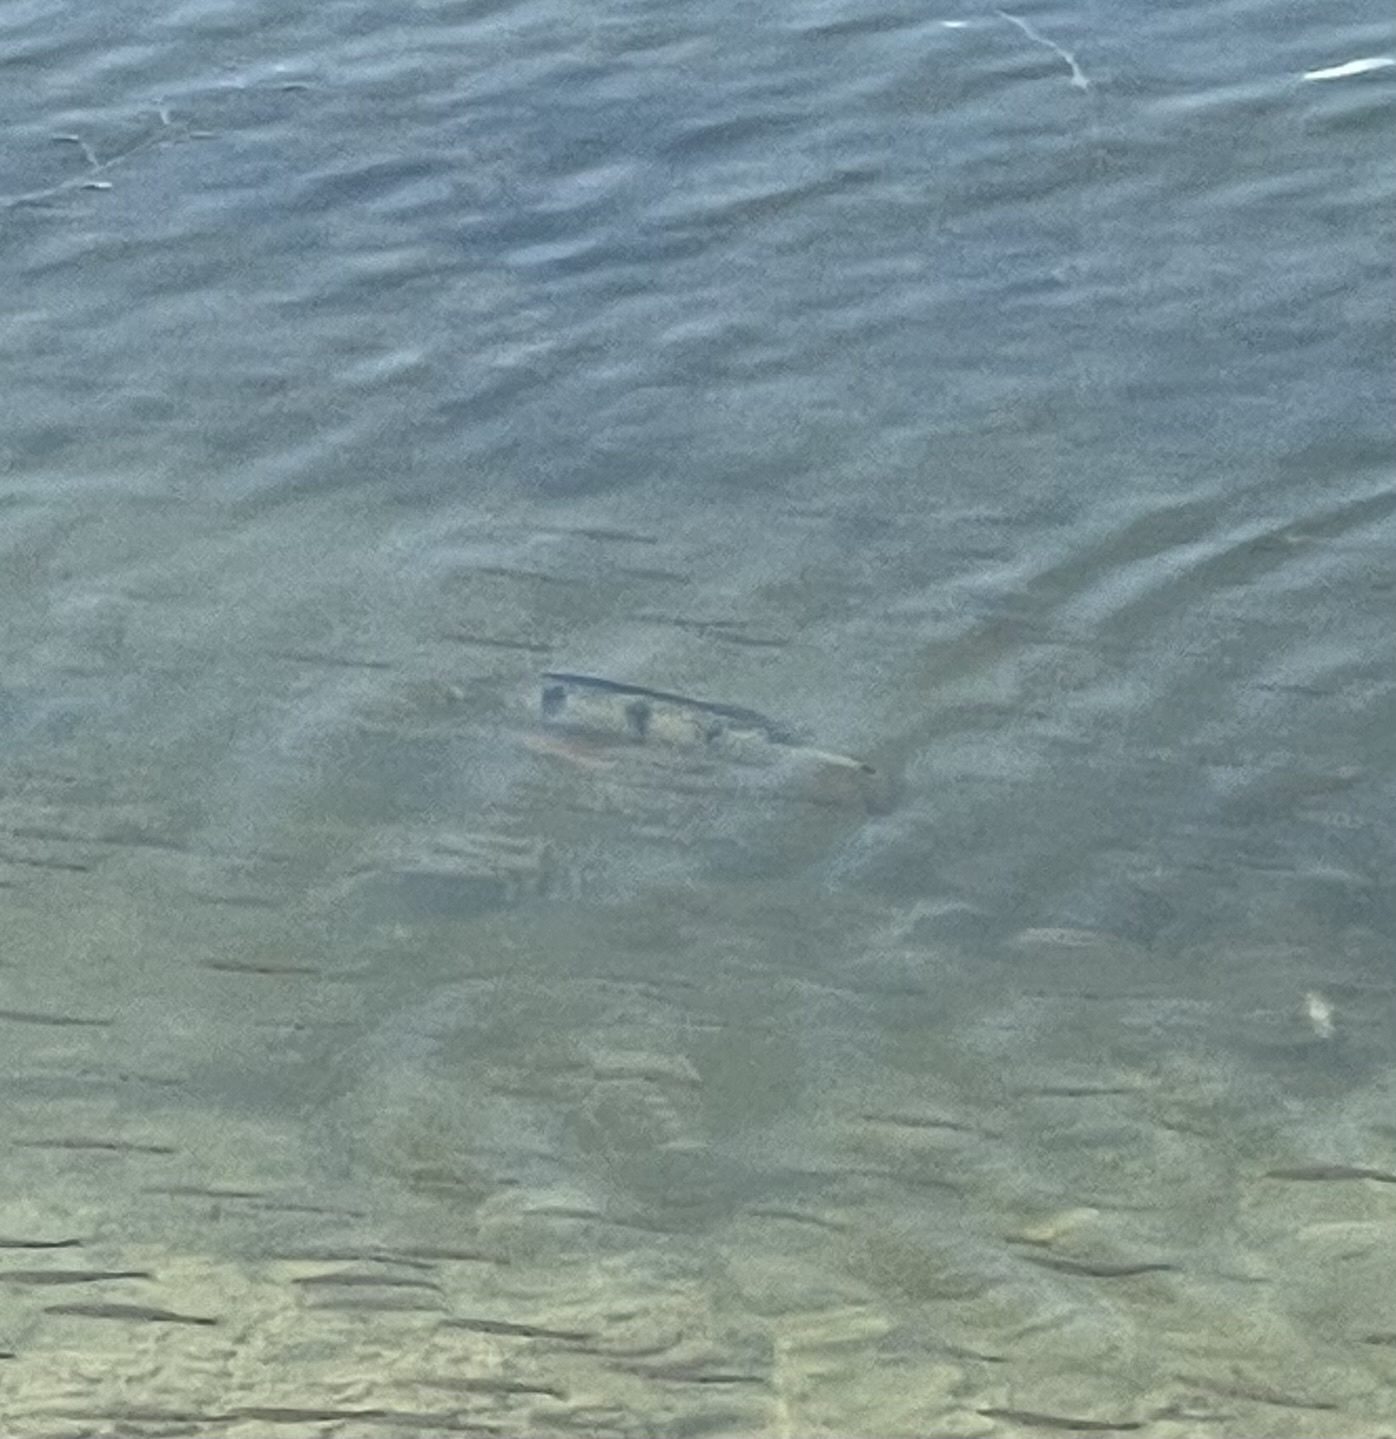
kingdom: Animalia
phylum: Chordata
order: Perciformes
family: Cichlidae
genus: Cichla
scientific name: Cichla ocellaris
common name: Peacock cichlid
